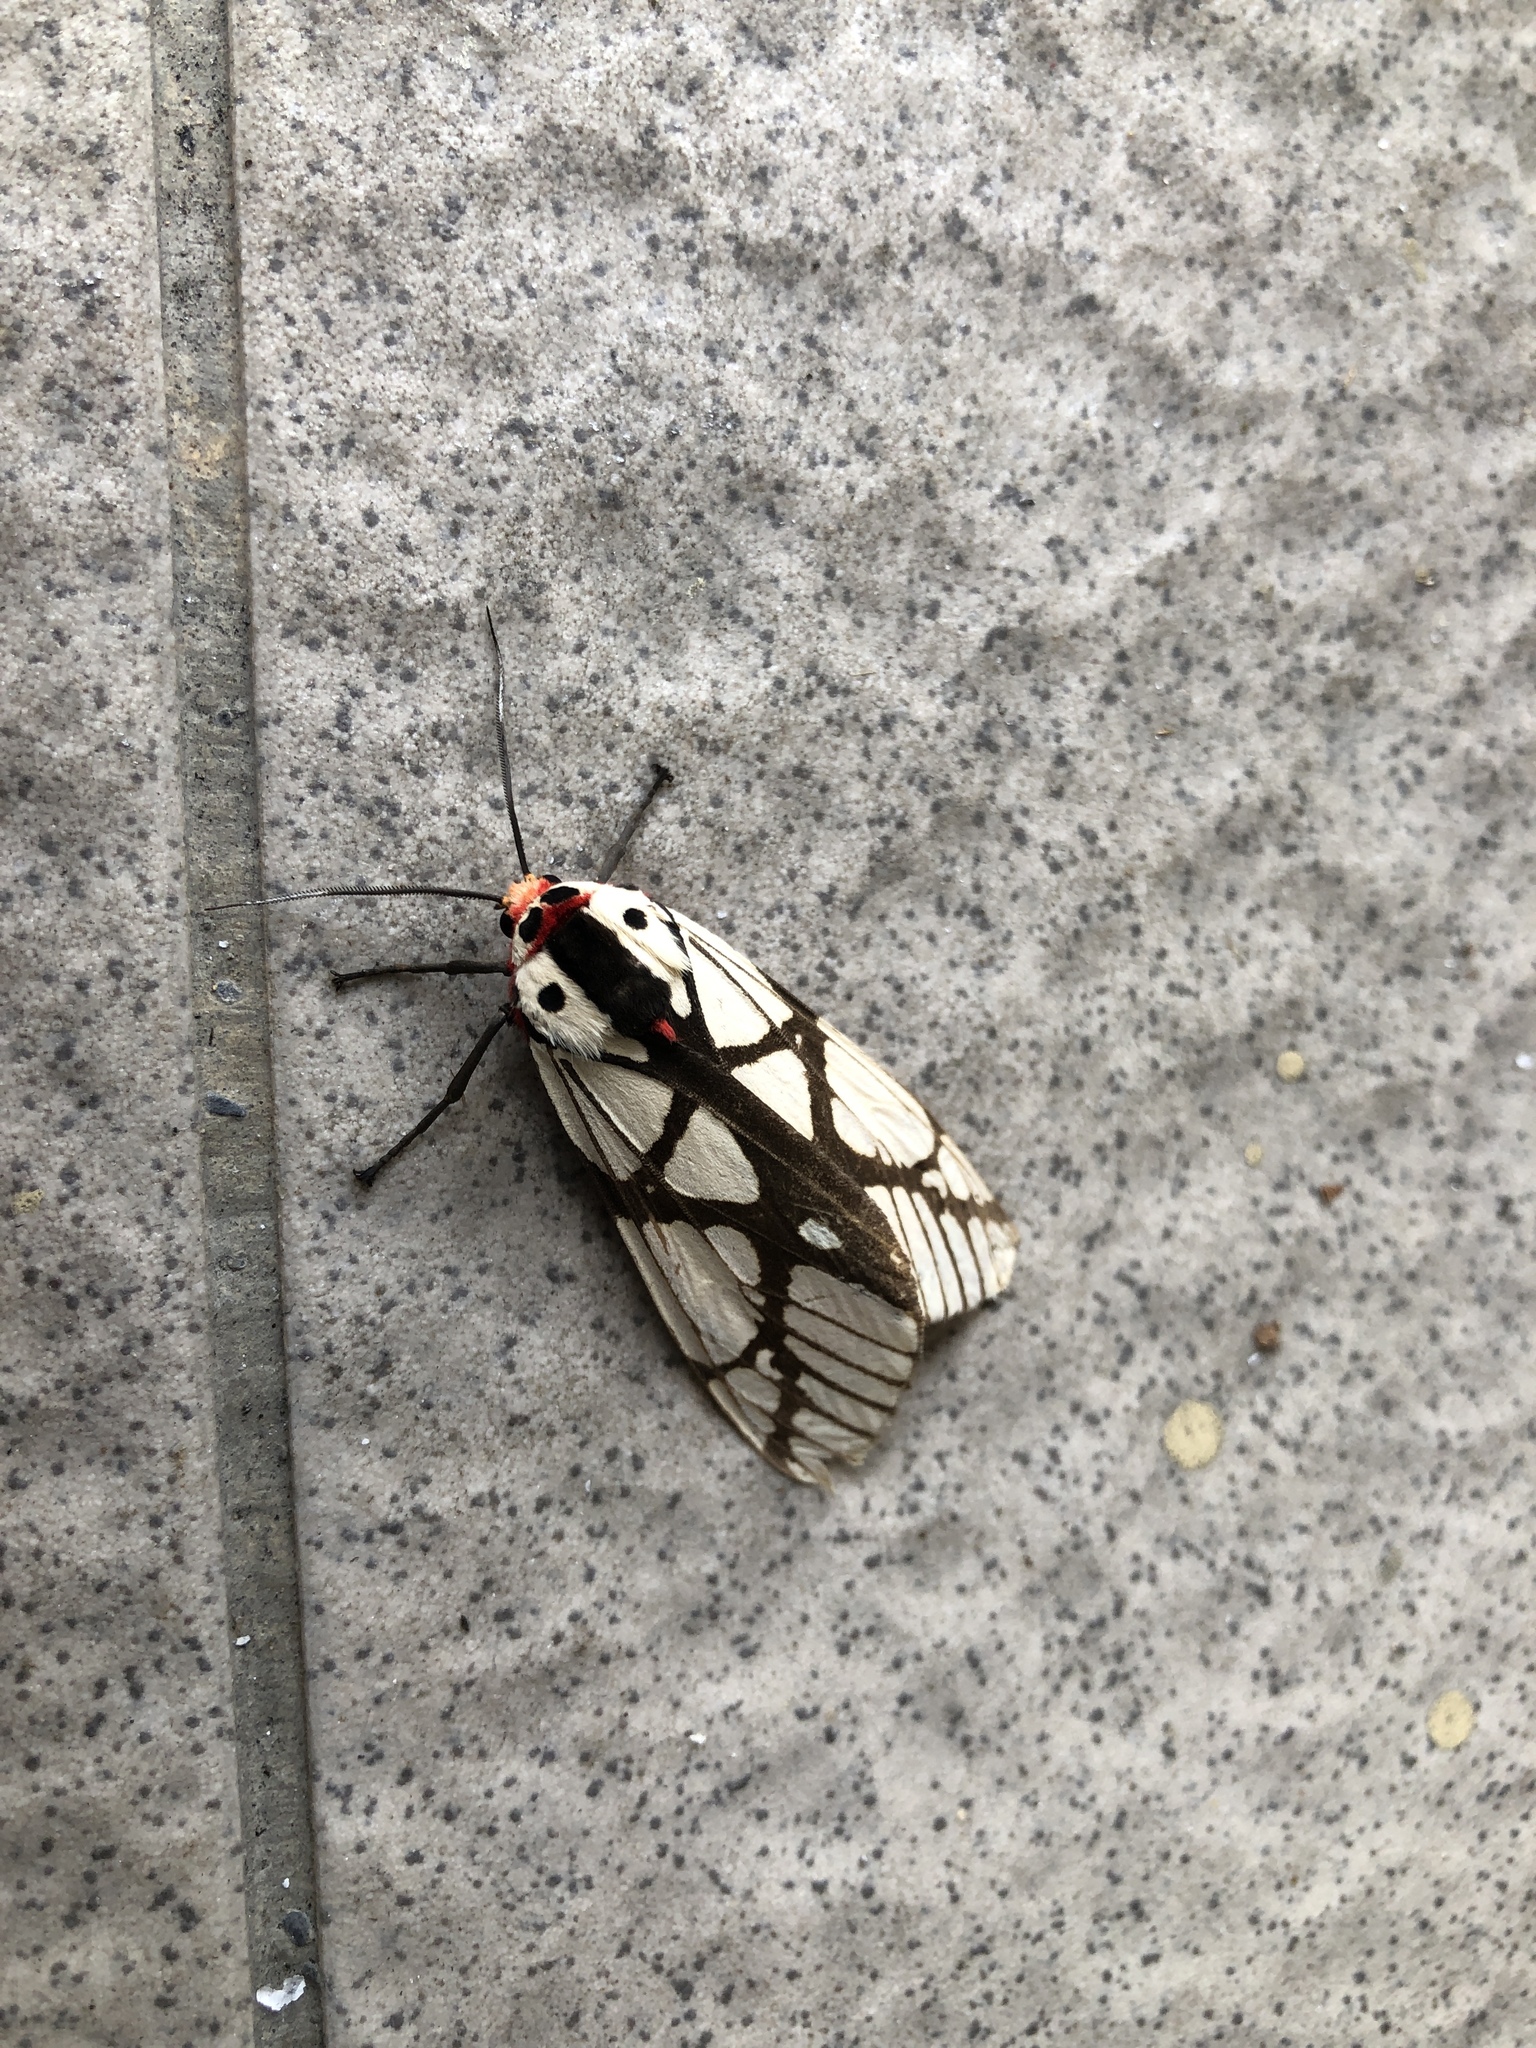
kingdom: Animalia
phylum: Arthropoda
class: Insecta
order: Lepidoptera
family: Erebidae
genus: Areas
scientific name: Areas galactina
